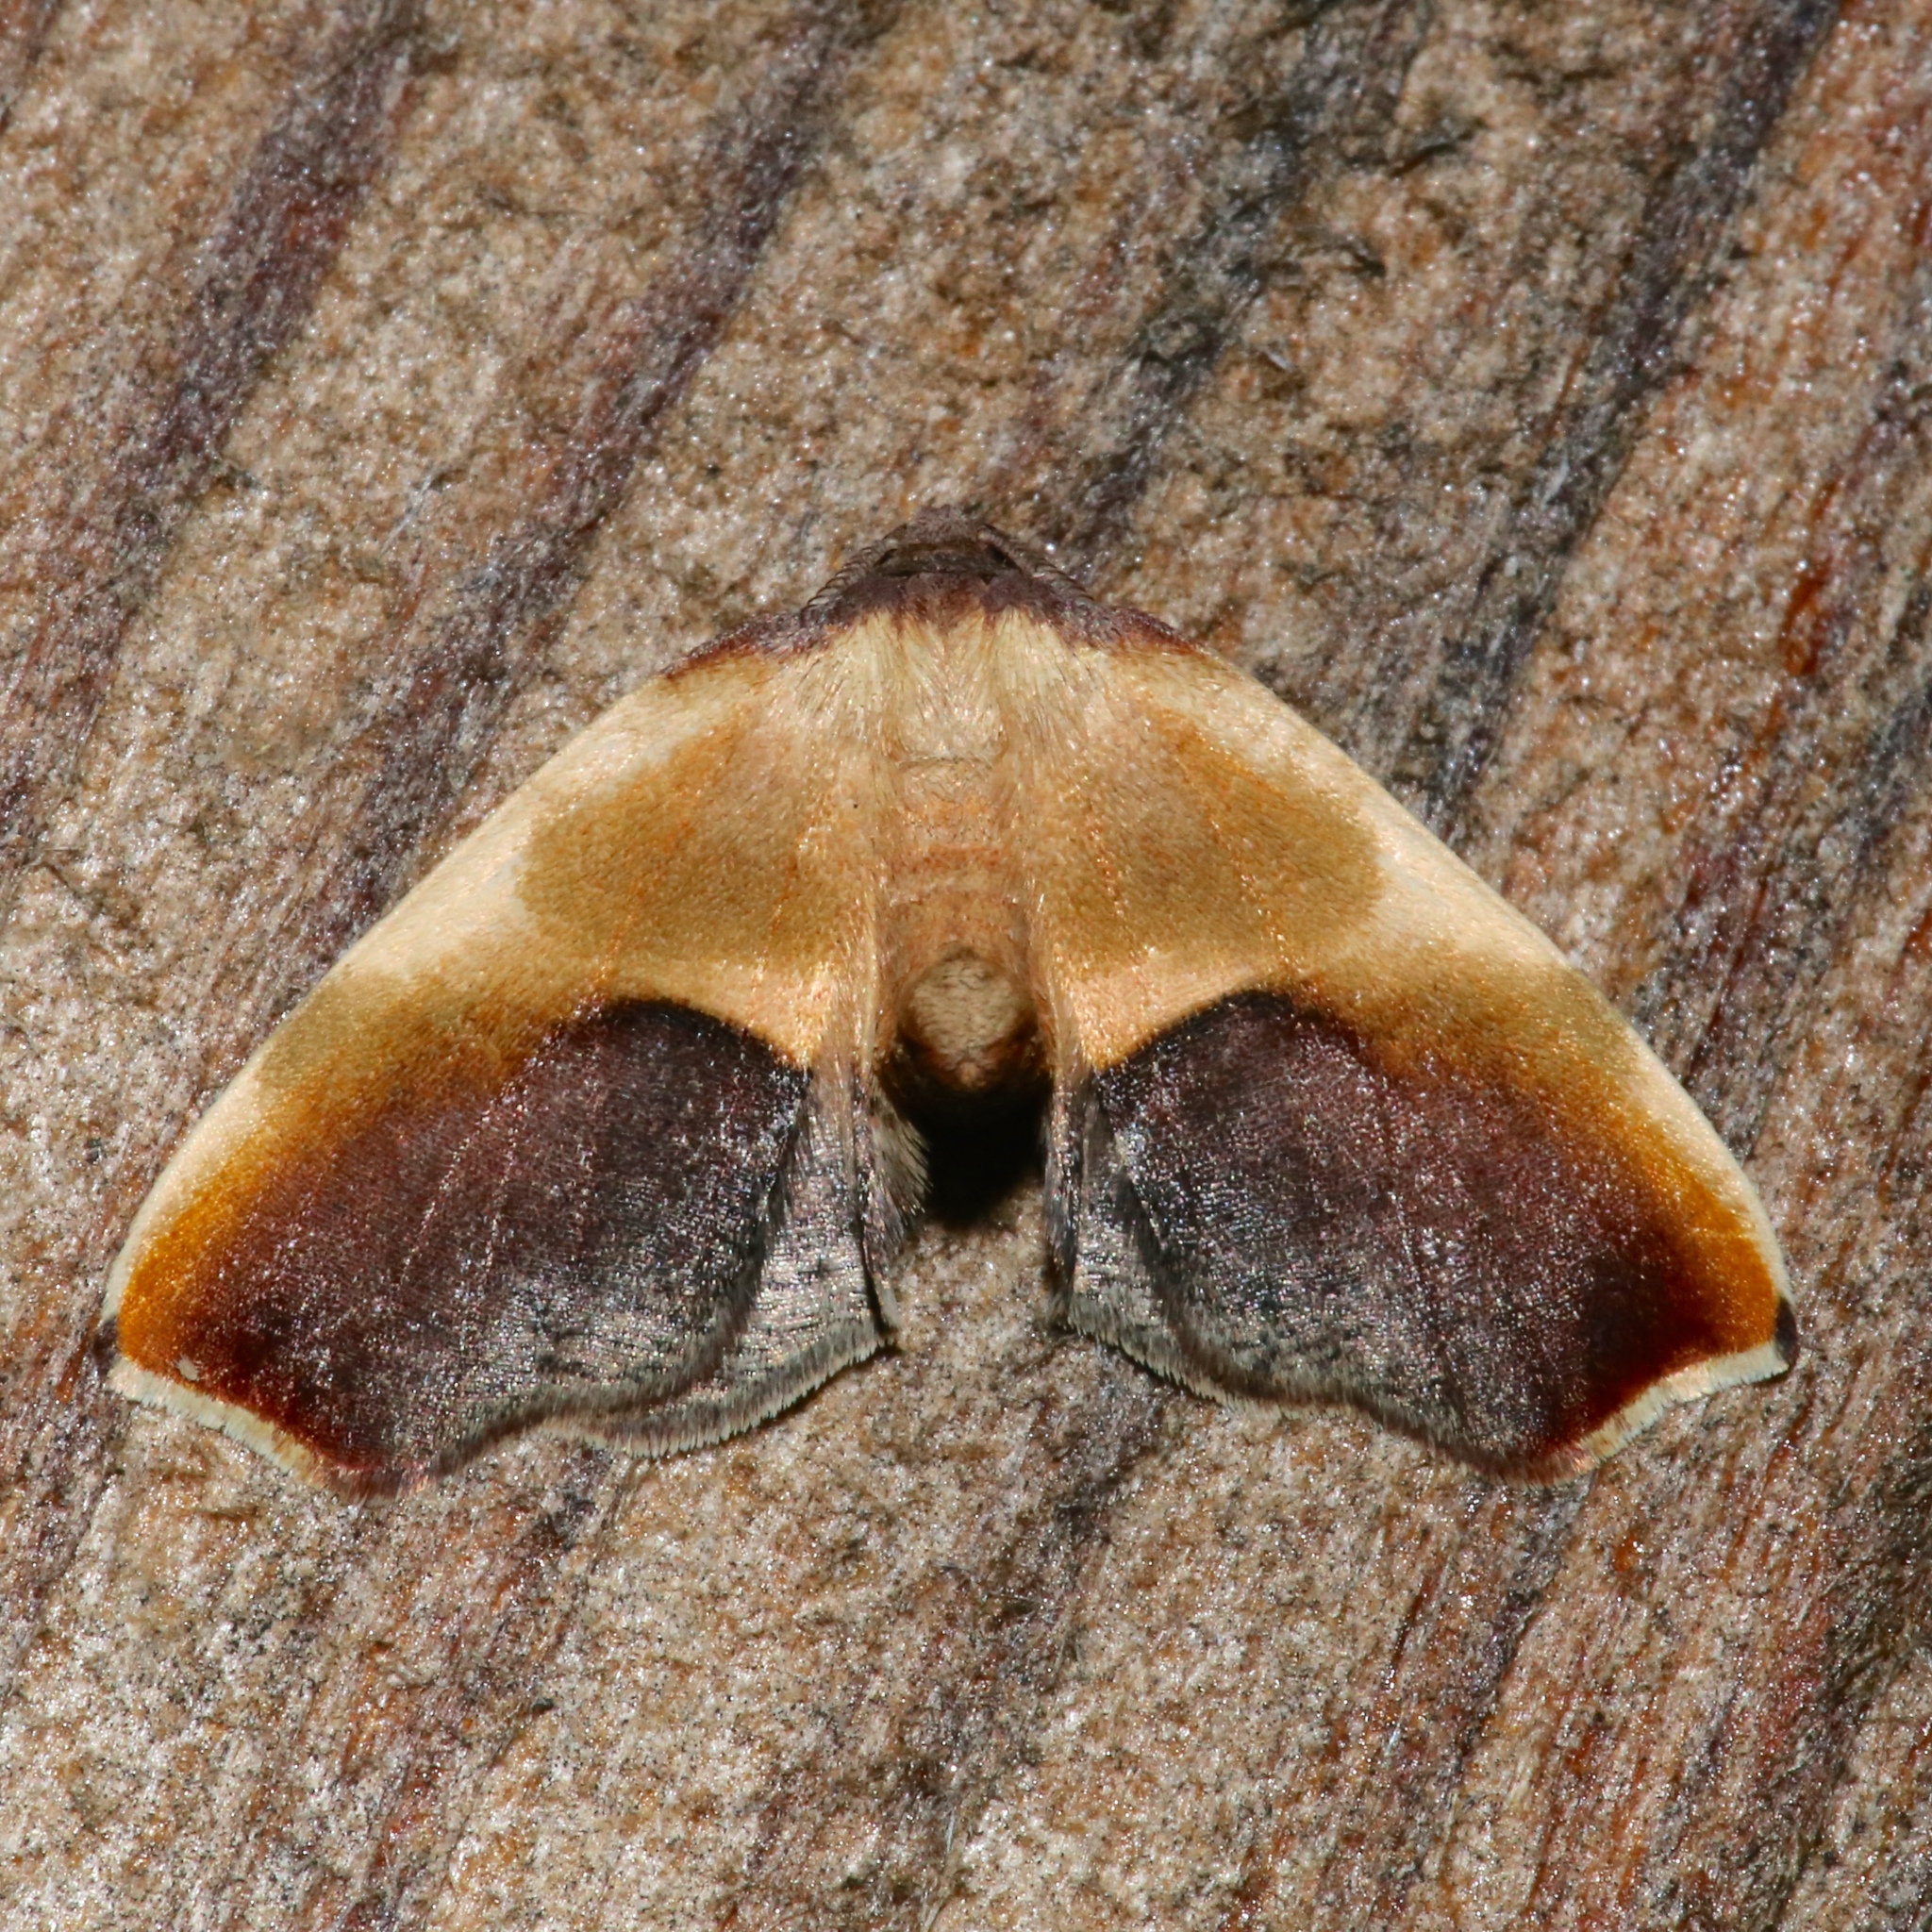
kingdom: Animalia
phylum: Arthropoda
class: Insecta
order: Lepidoptera
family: Geometridae
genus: Plagodis
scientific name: Plagodis kuetzingi
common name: Purple plagodis
